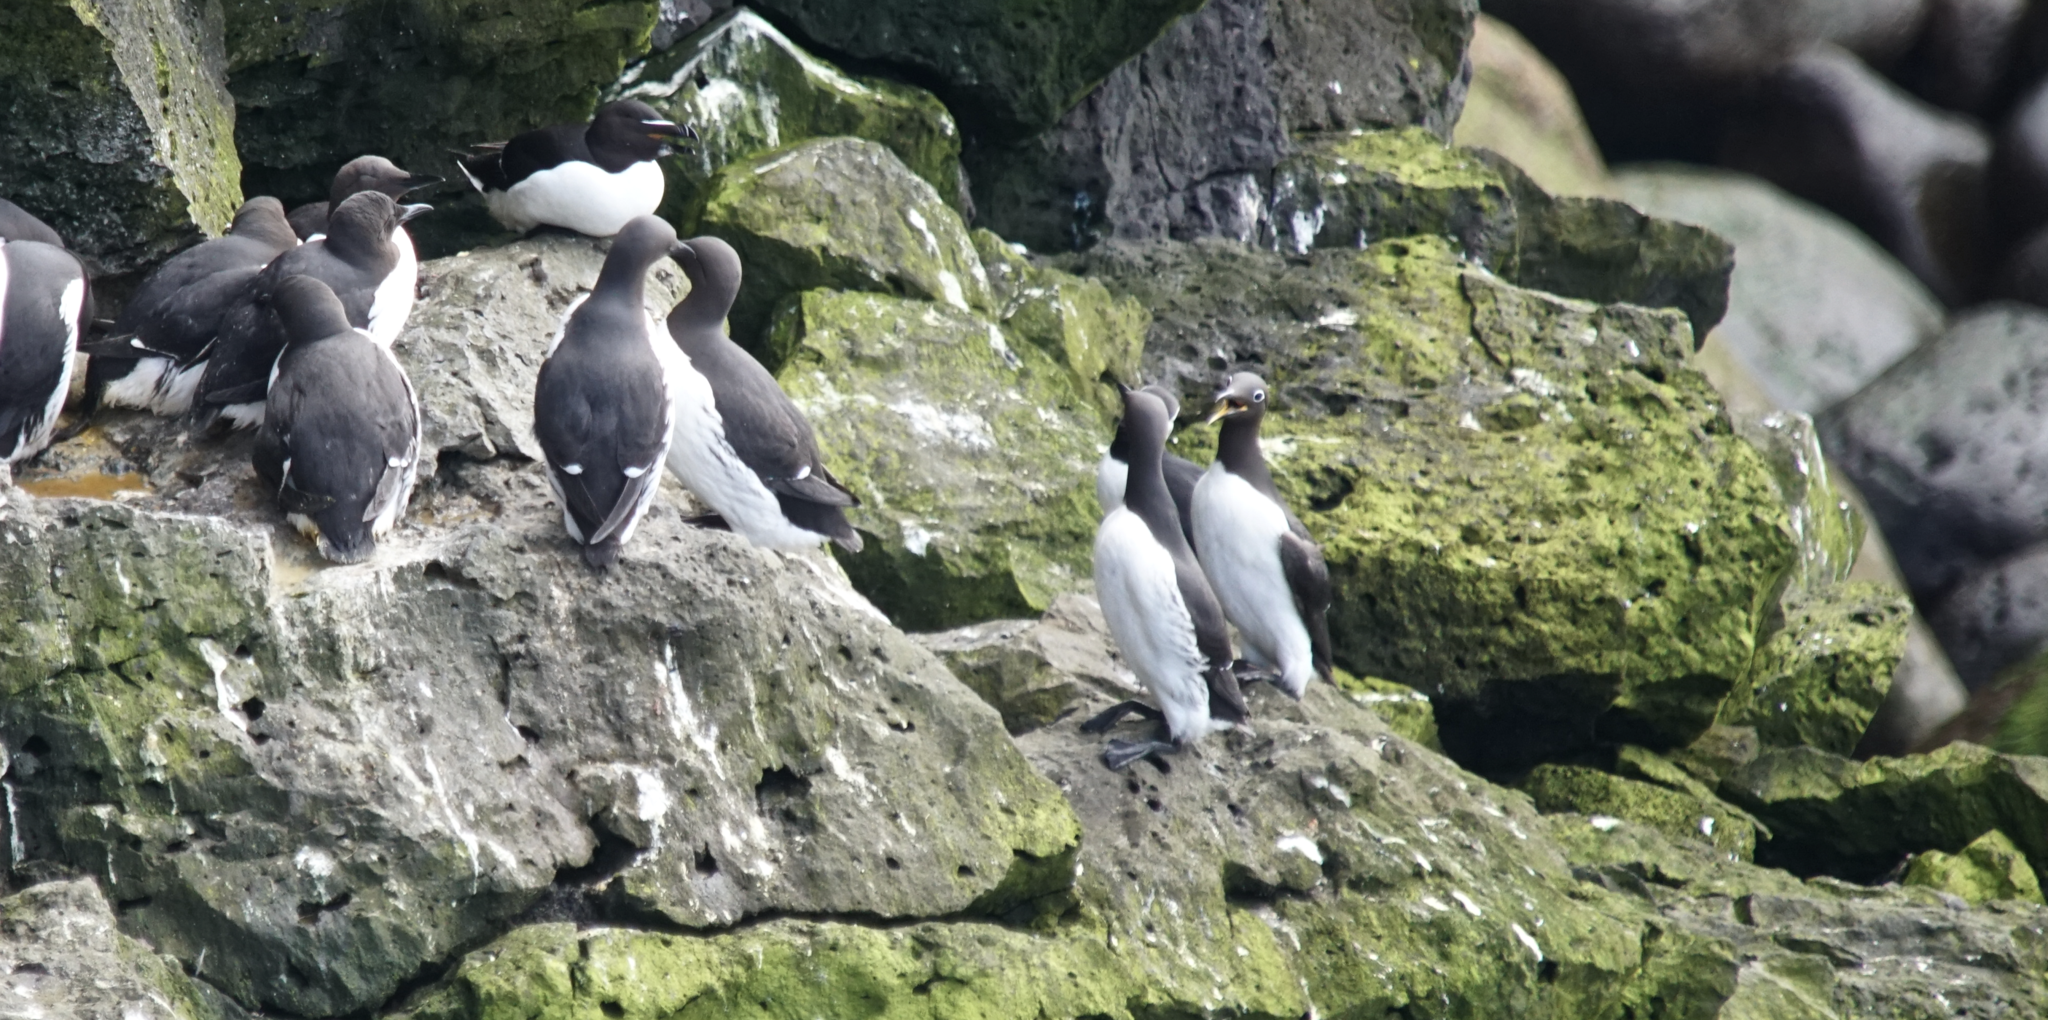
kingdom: Animalia
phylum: Chordata
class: Aves
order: Charadriiformes
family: Alcidae
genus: Uria
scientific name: Uria aalge
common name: Common murre
